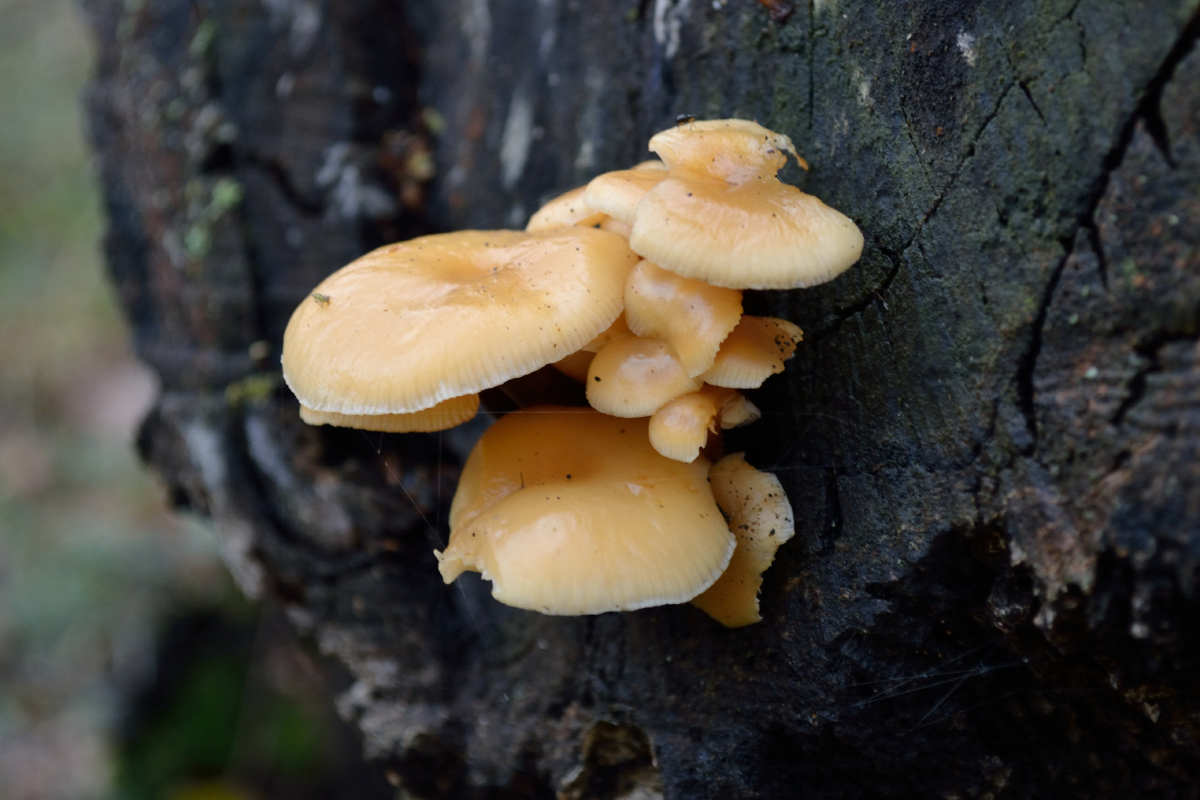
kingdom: Fungi
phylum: Basidiomycota
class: Agaricomycetes
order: Agaricales
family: Physalacriaceae
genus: Flammulina
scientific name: Flammulina
